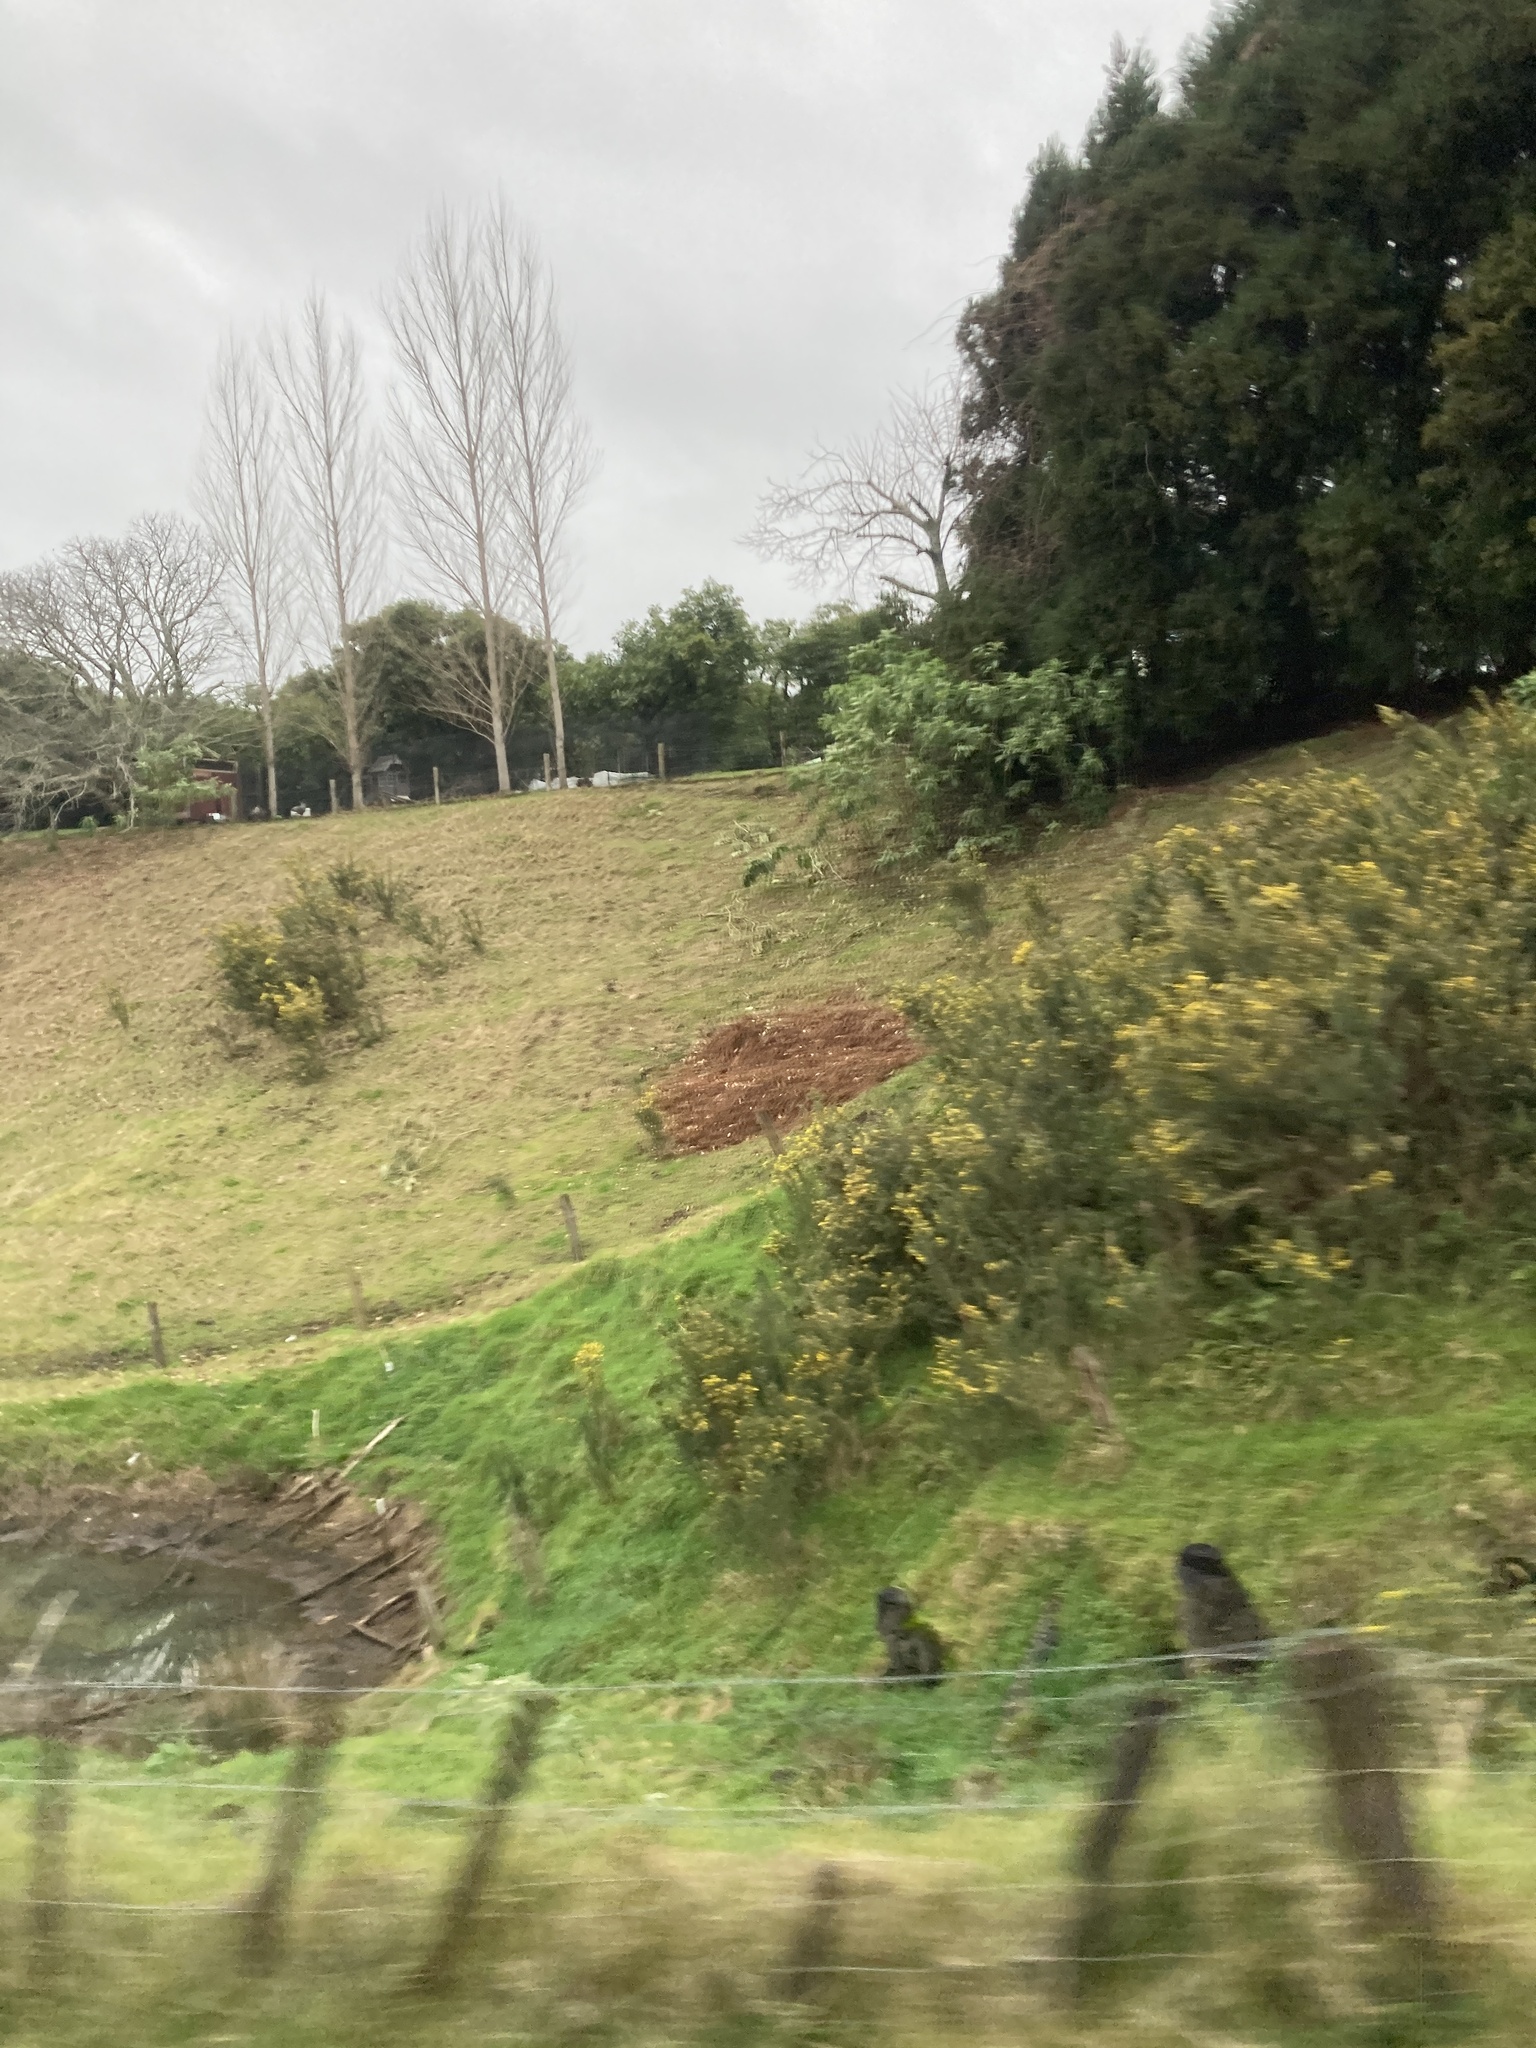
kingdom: Plantae
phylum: Tracheophyta
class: Magnoliopsida
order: Fabales
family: Fabaceae
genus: Ulex
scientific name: Ulex europaeus
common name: Common gorse
